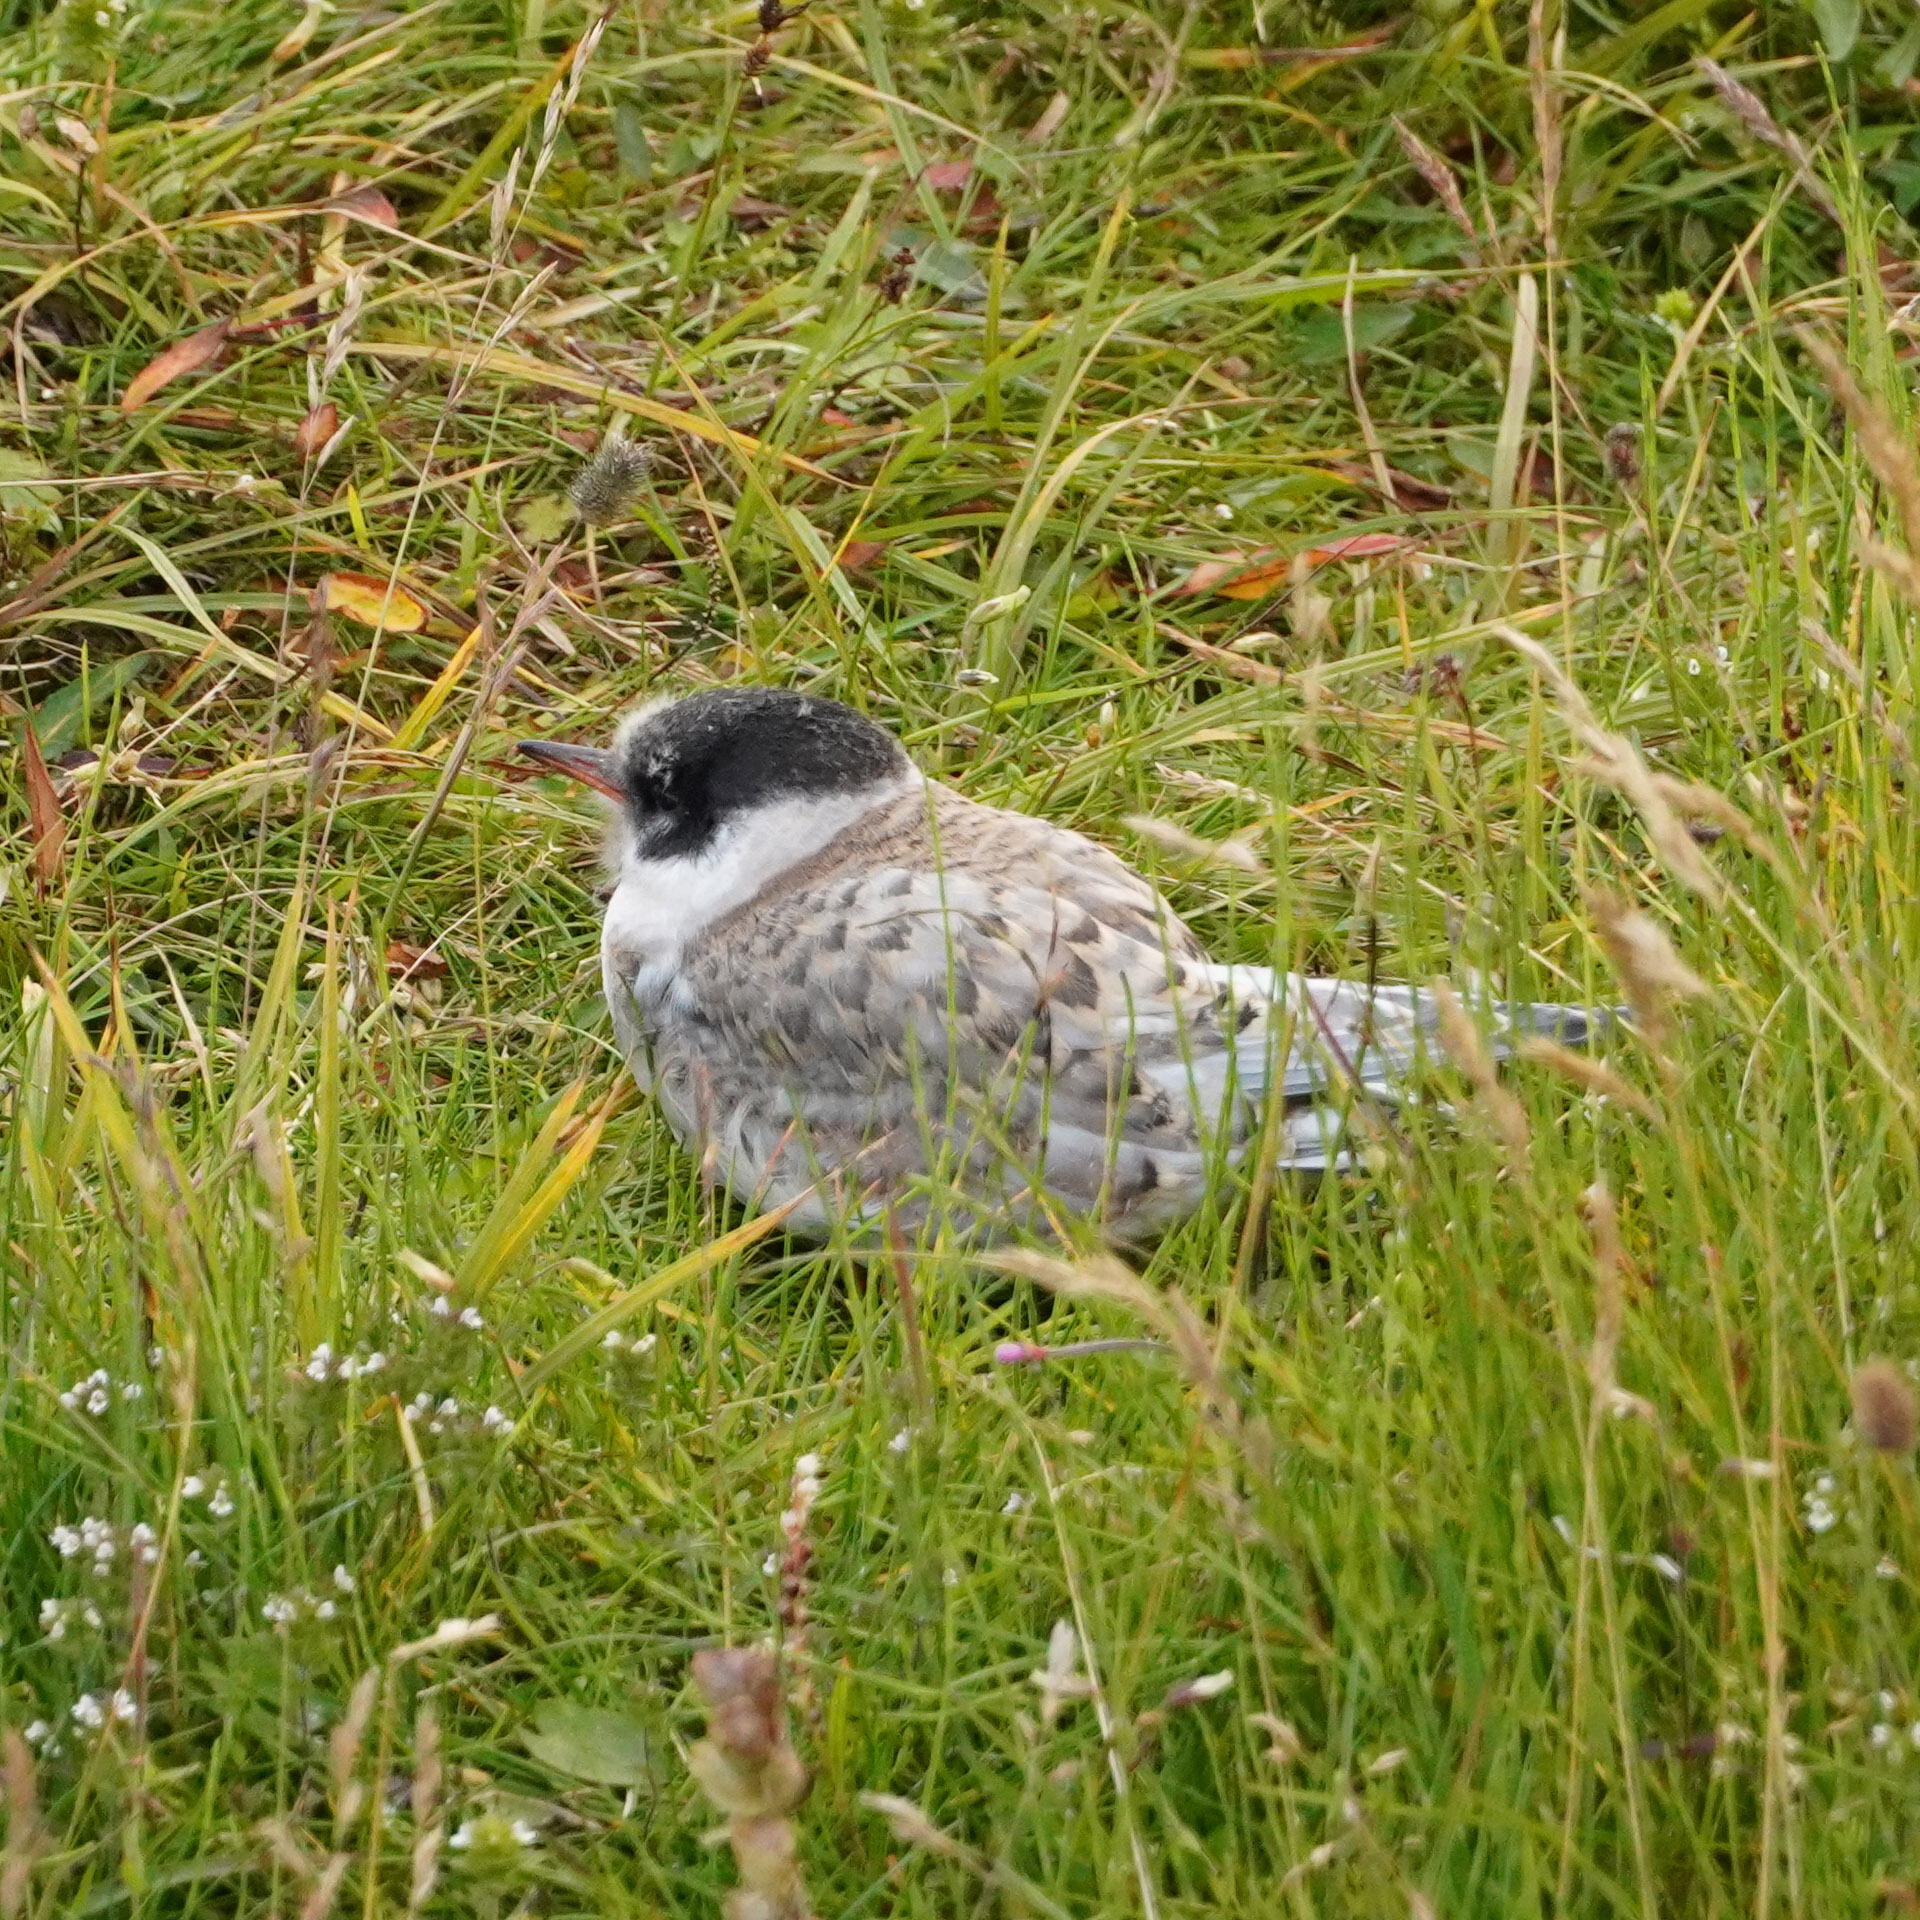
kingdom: Animalia
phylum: Chordata
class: Aves
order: Charadriiformes
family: Laridae
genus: Sterna
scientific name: Sterna paradisaea
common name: Arctic tern
